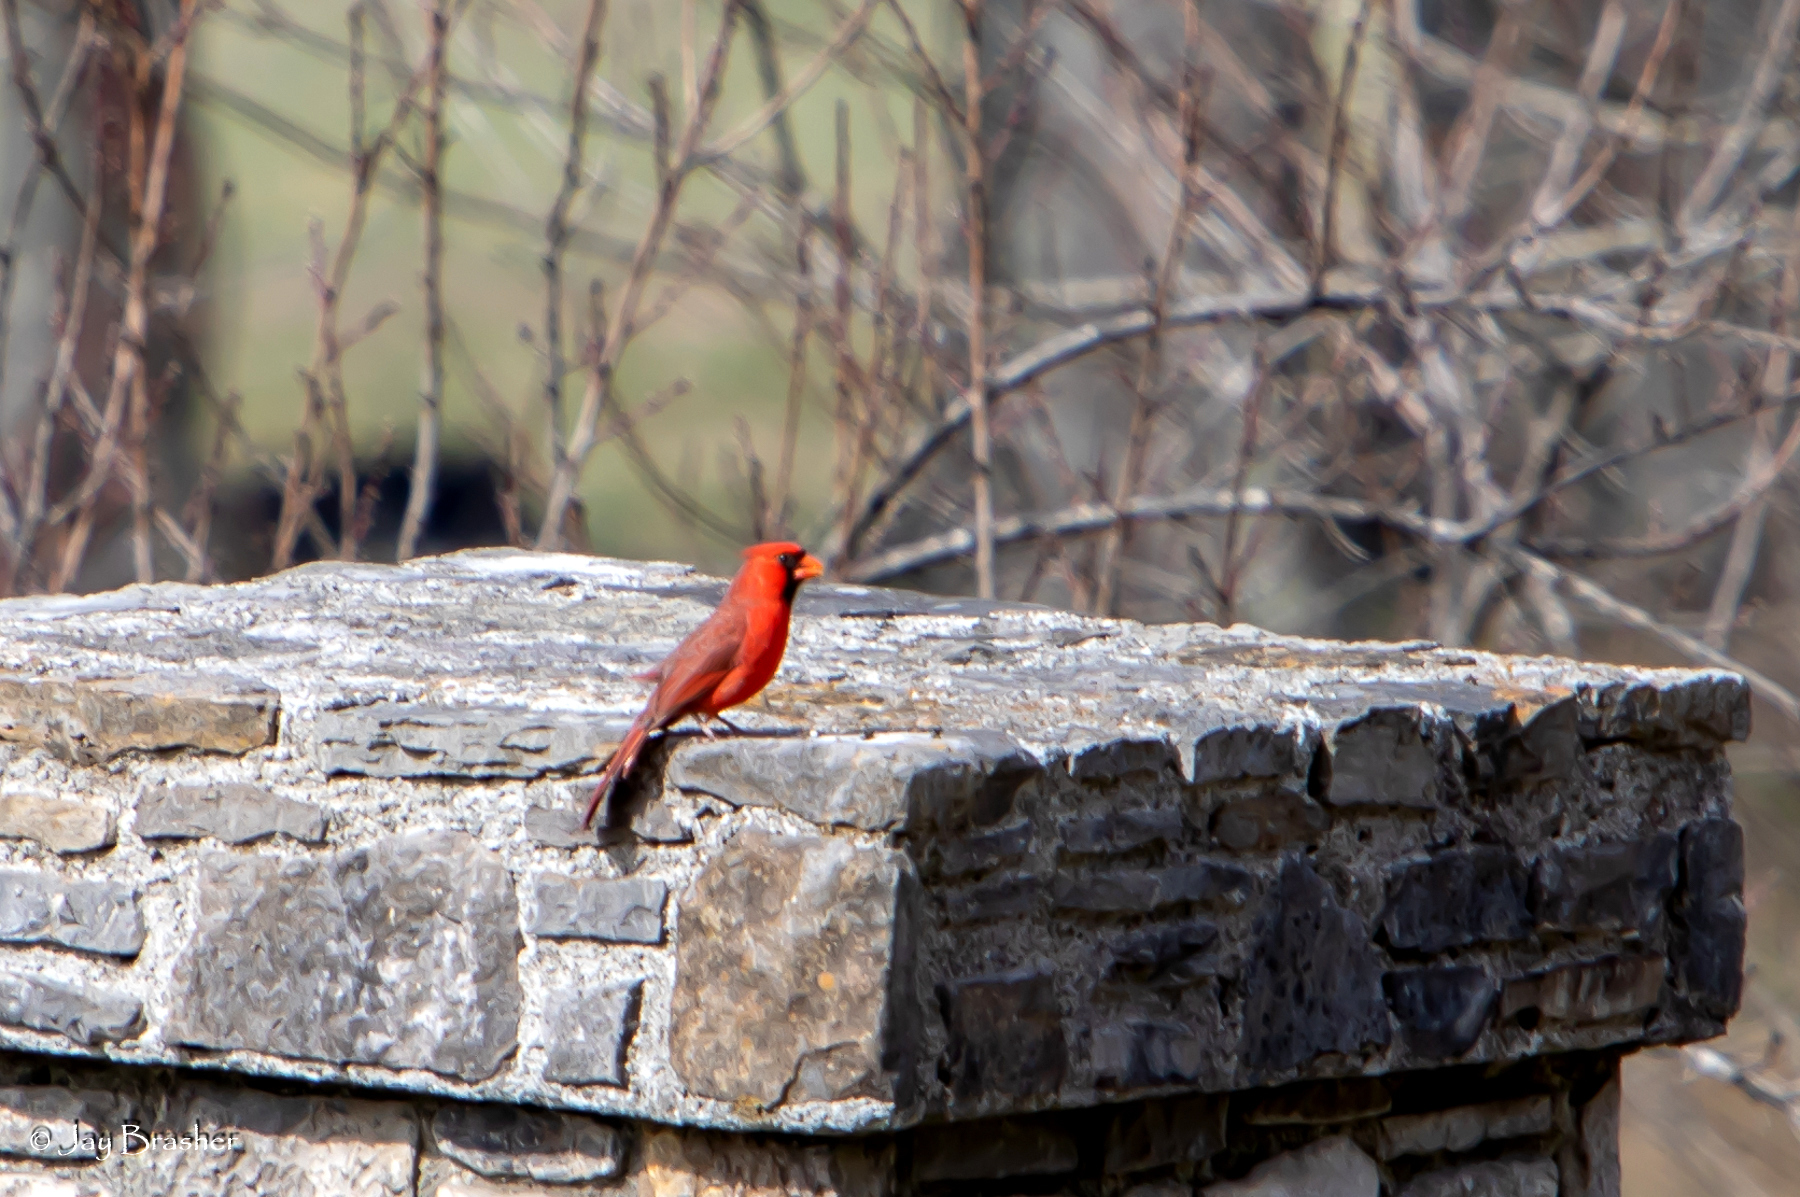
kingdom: Animalia
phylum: Chordata
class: Aves
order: Passeriformes
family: Cardinalidae
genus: Cardinalis
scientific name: Cardinalis cardinalis
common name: Northern cardinal
